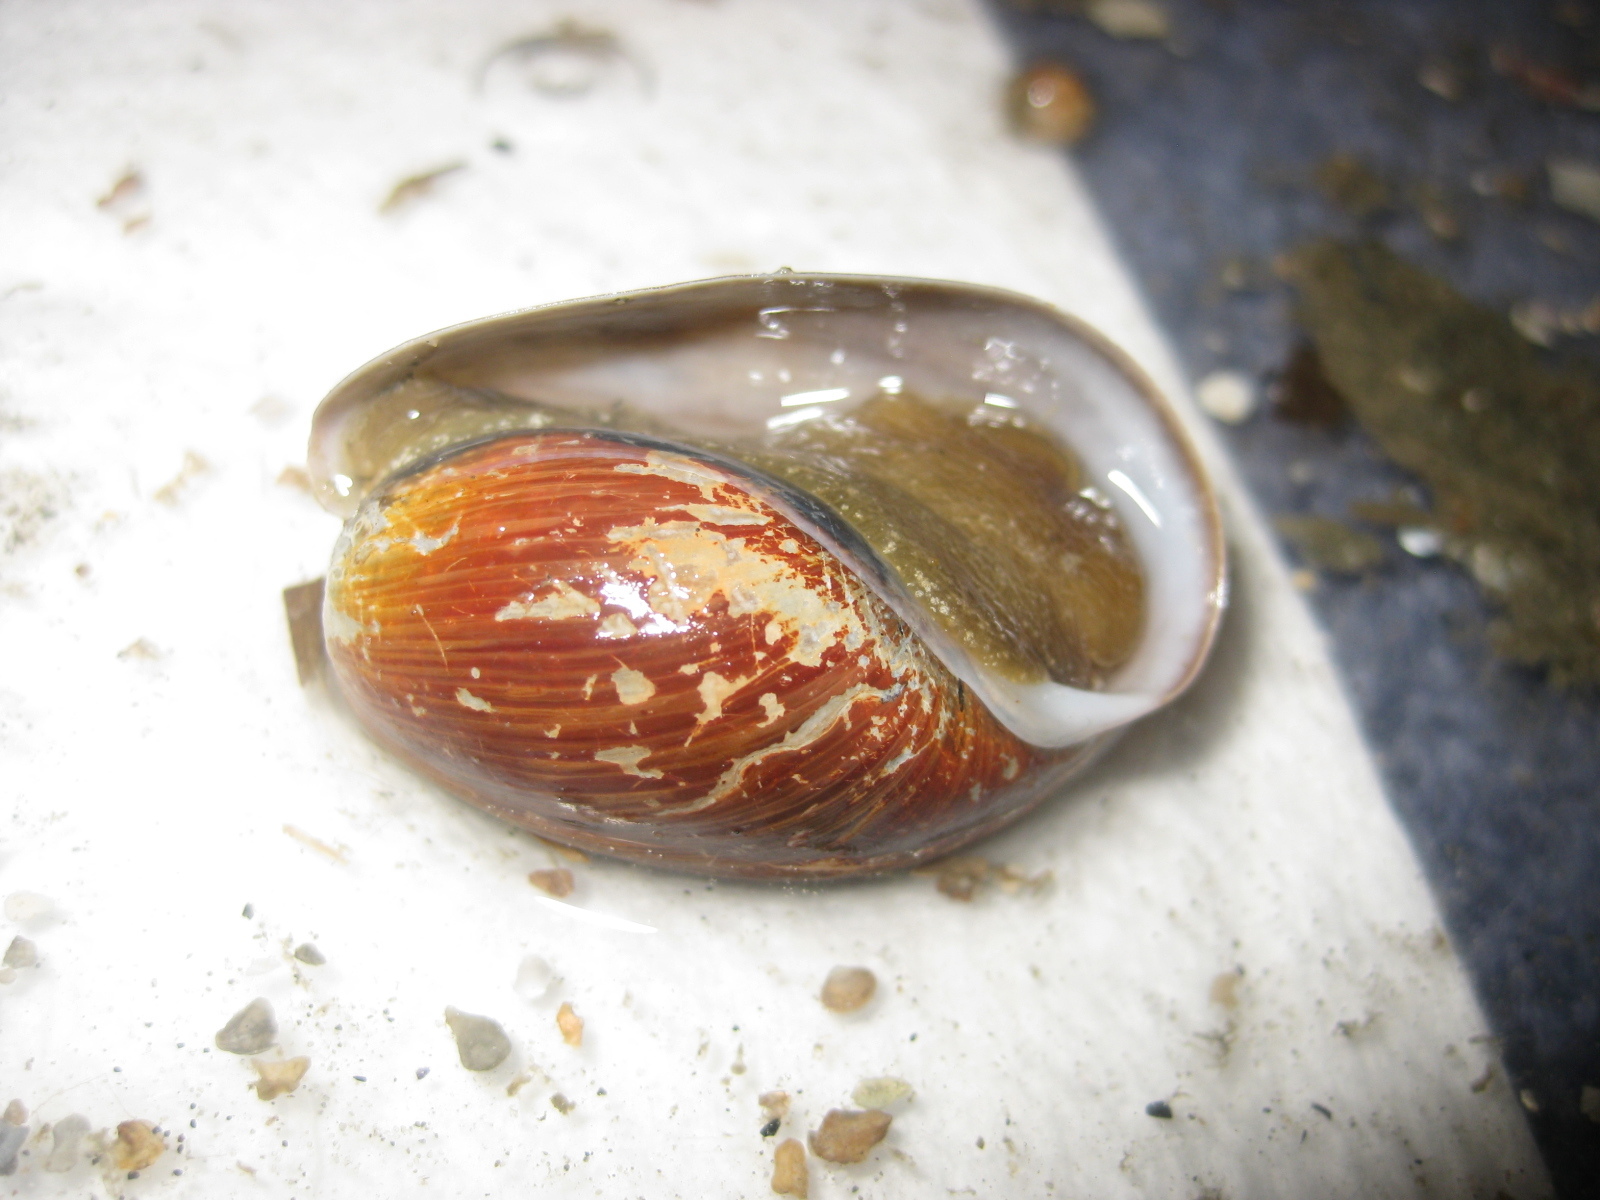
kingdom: Animalia
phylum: Mollusca
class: Gastropoda
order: Cephalaspidea
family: Bullidae
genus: Bulla
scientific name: Bulla quoyii
